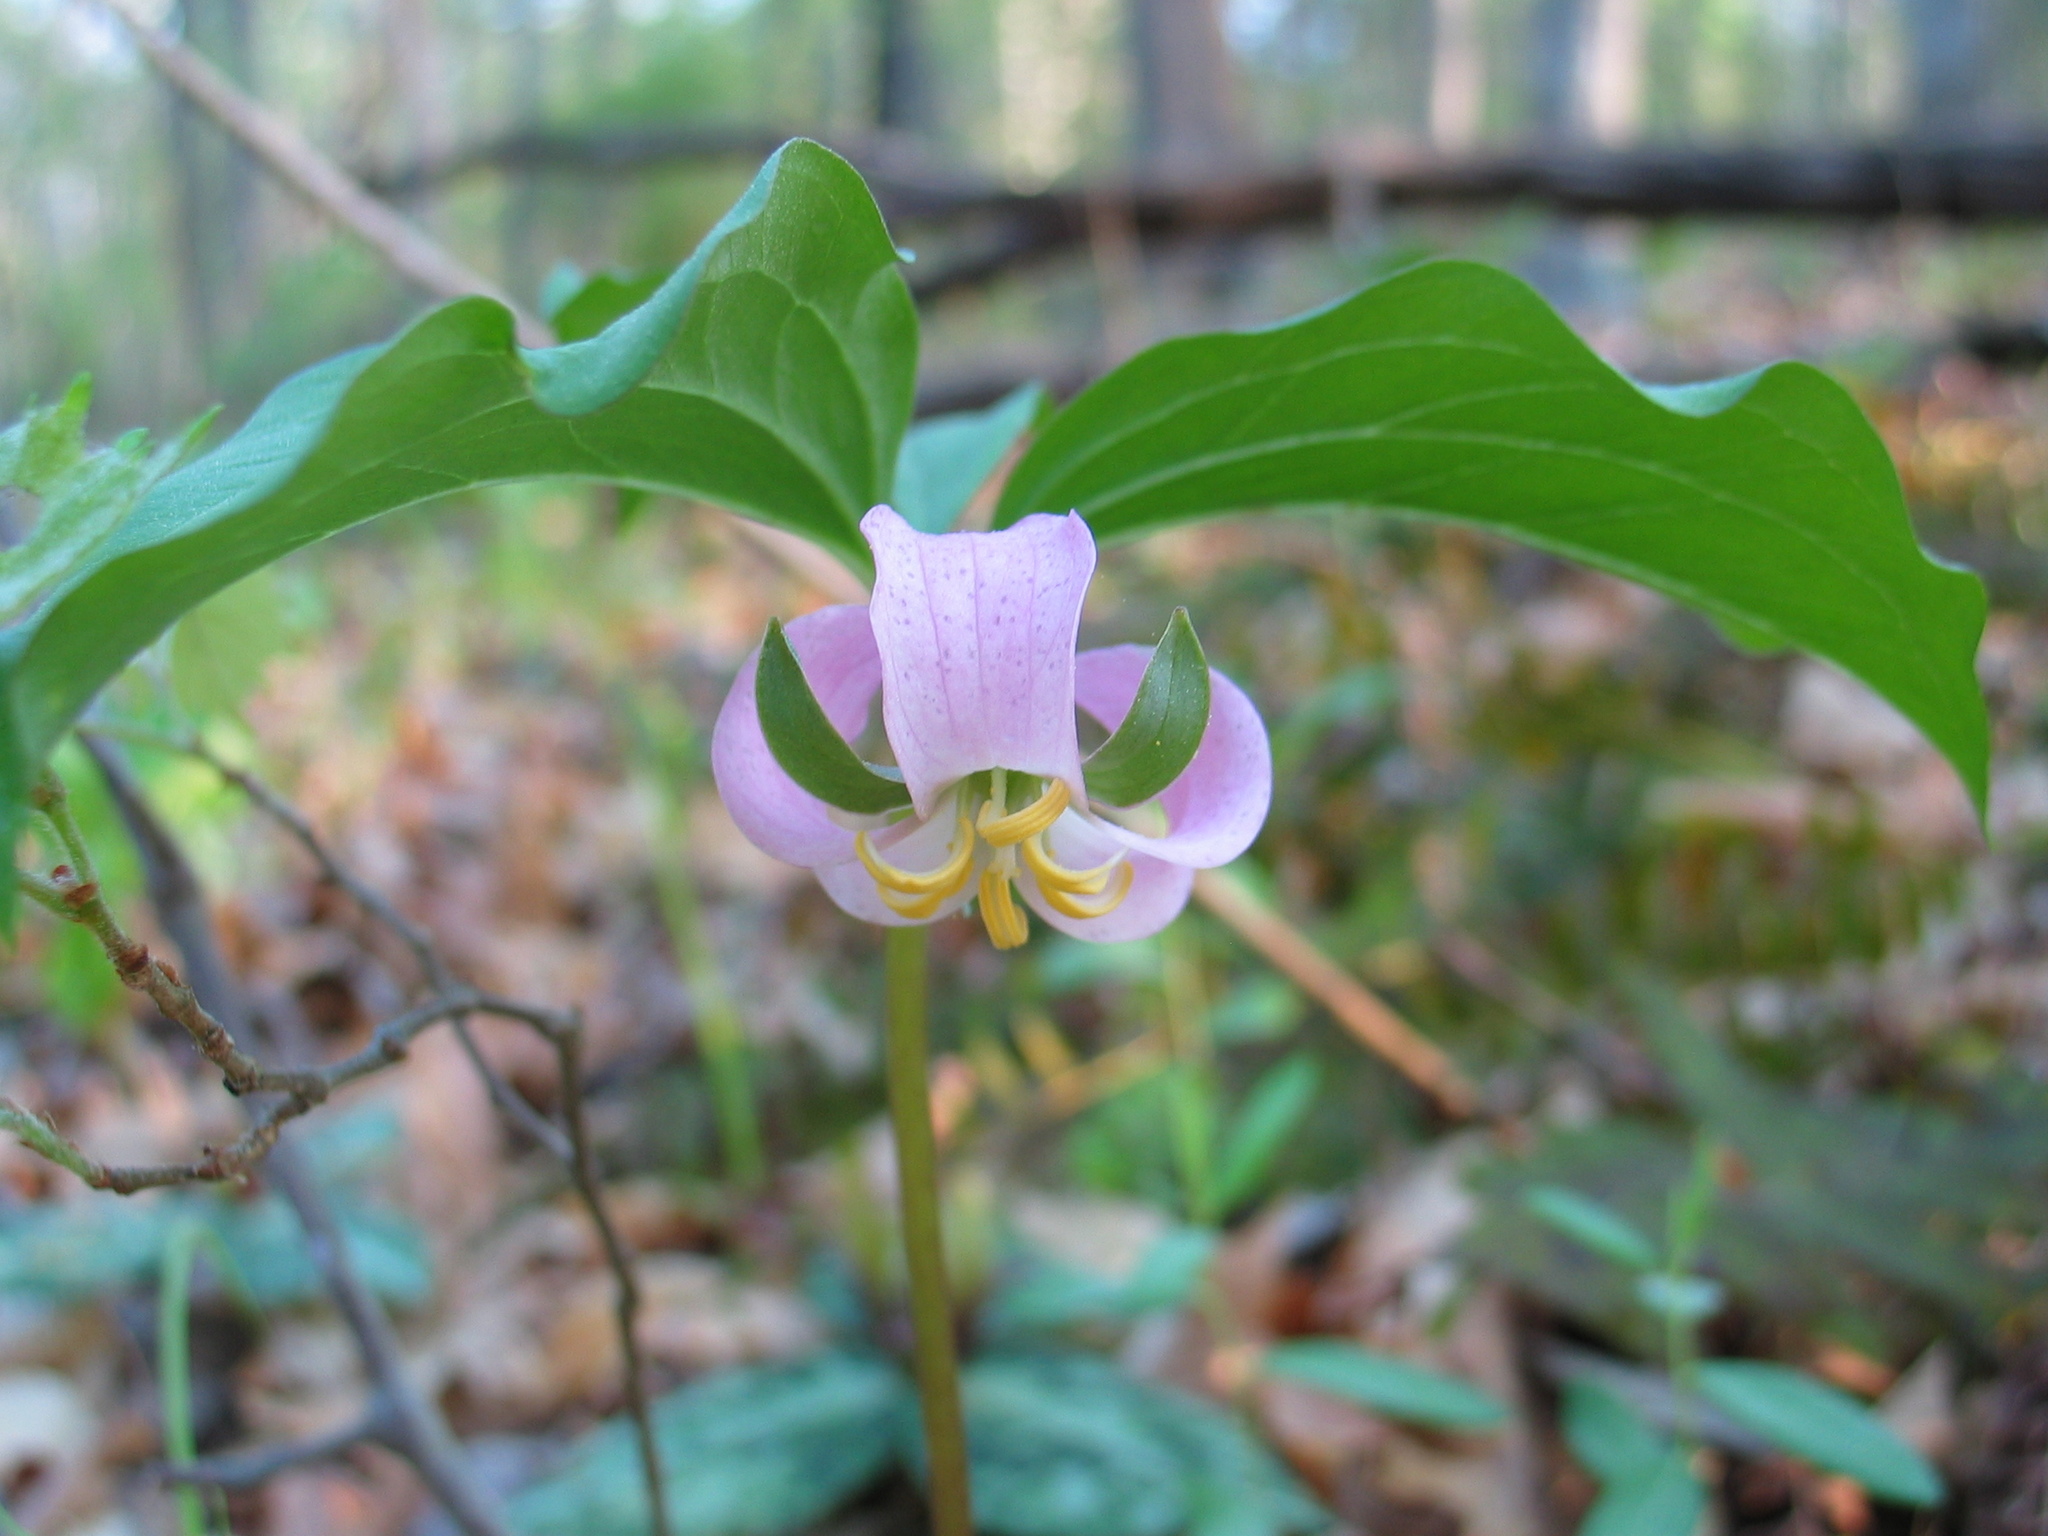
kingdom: Plantae
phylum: Tracheophyta
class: Liliopsida
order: Liliales
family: Melanthiaceae
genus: Trillium
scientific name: Trillium catesbaei
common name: Bashful trillium
